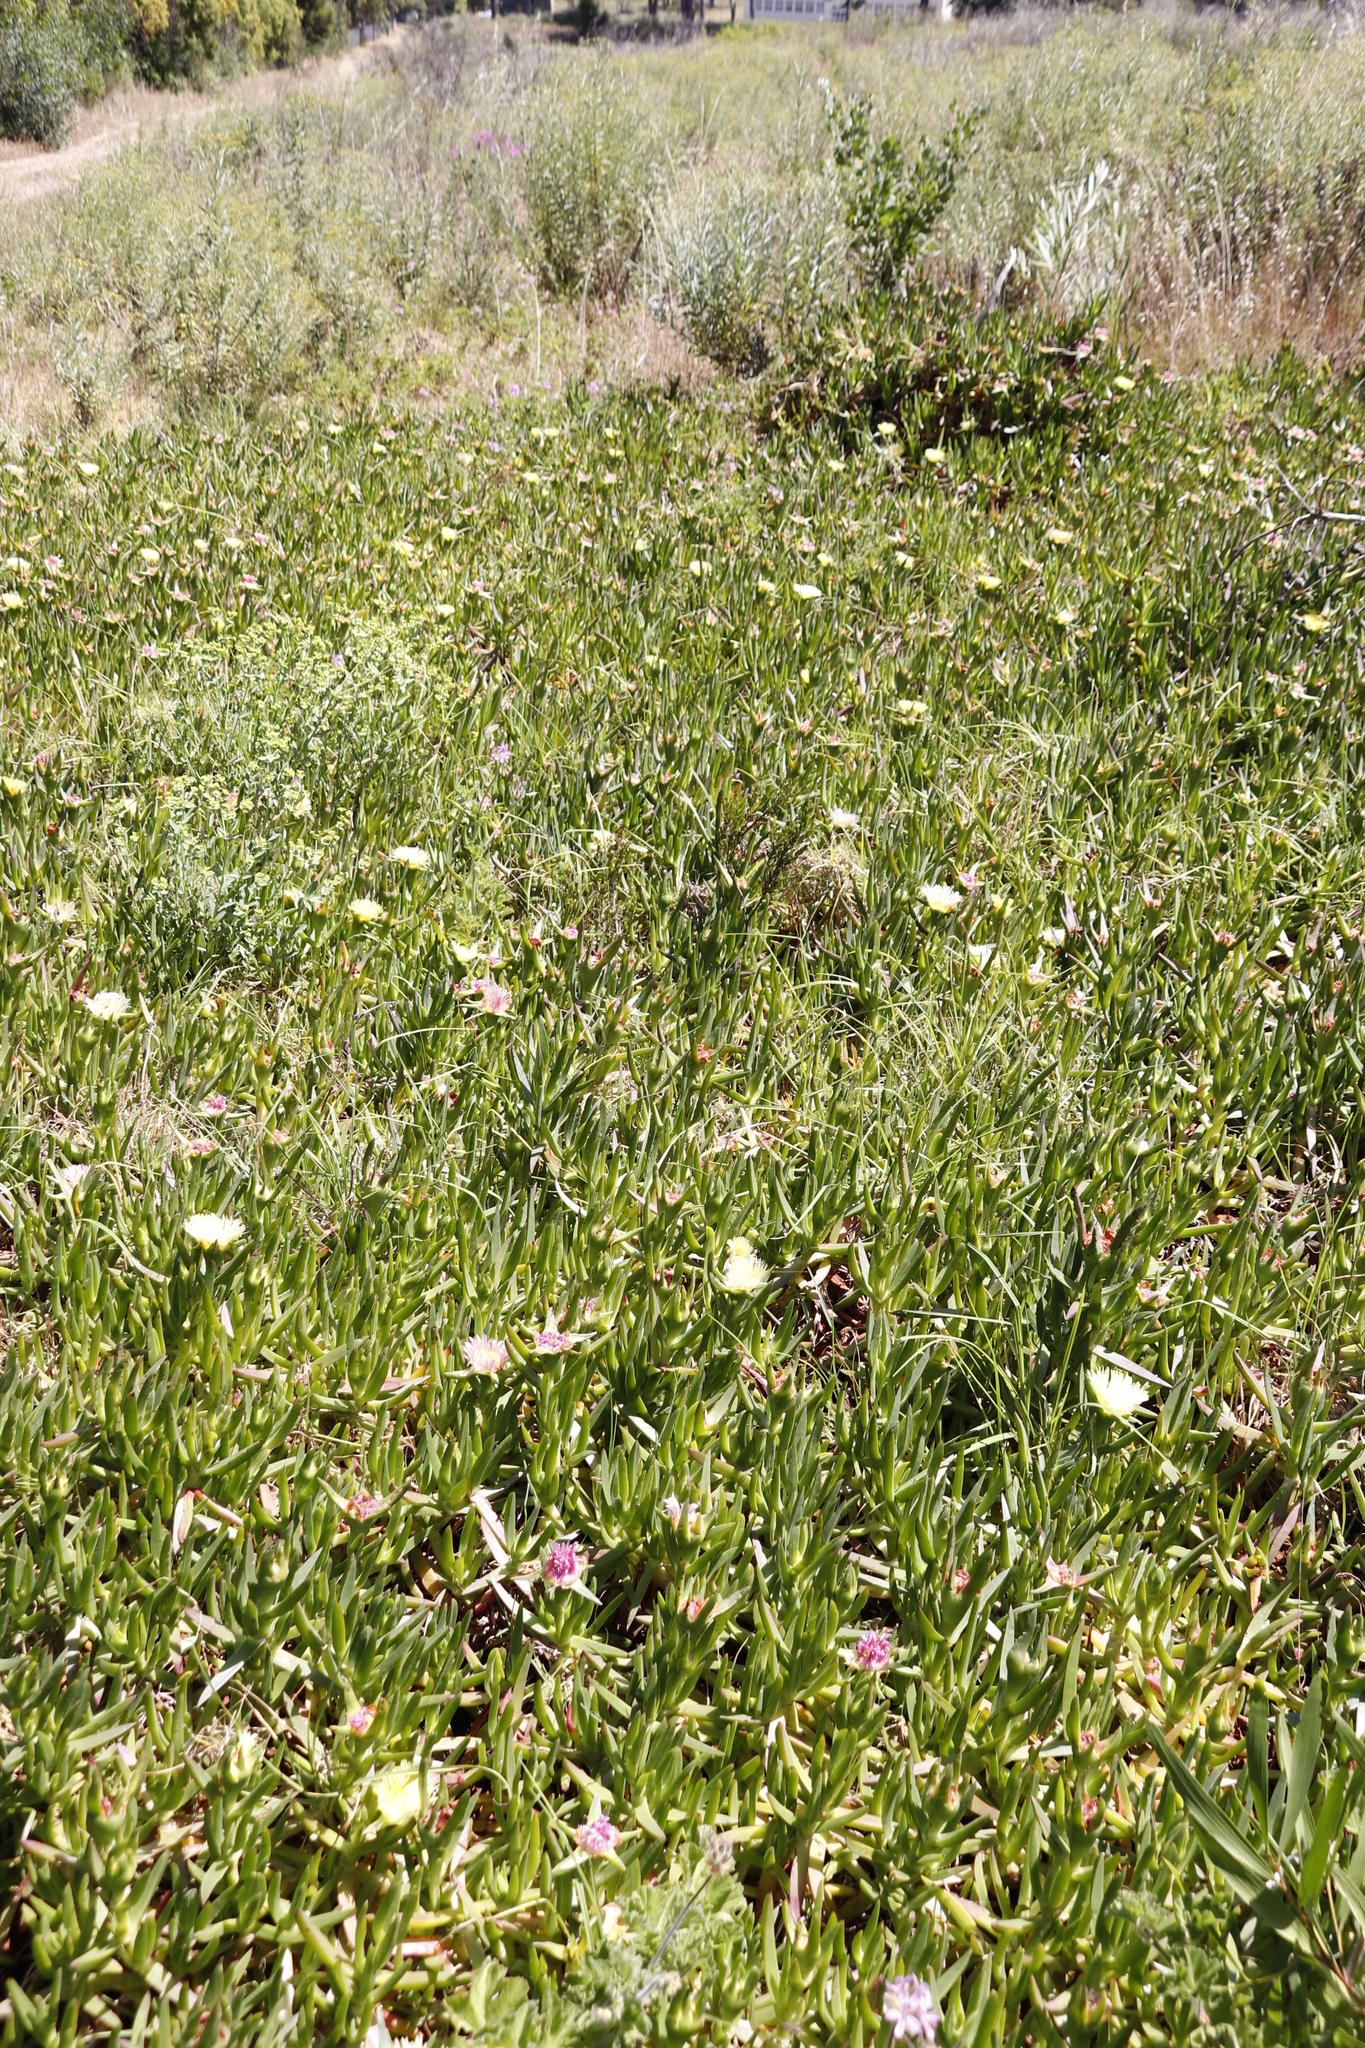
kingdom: Plantae
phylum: Tracheophyta
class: Magnoliopsida
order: Caryophyllales
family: Aizoaceae
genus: Carpobrotus
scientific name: Carpobrotus edulis
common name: Hottentot-fig
